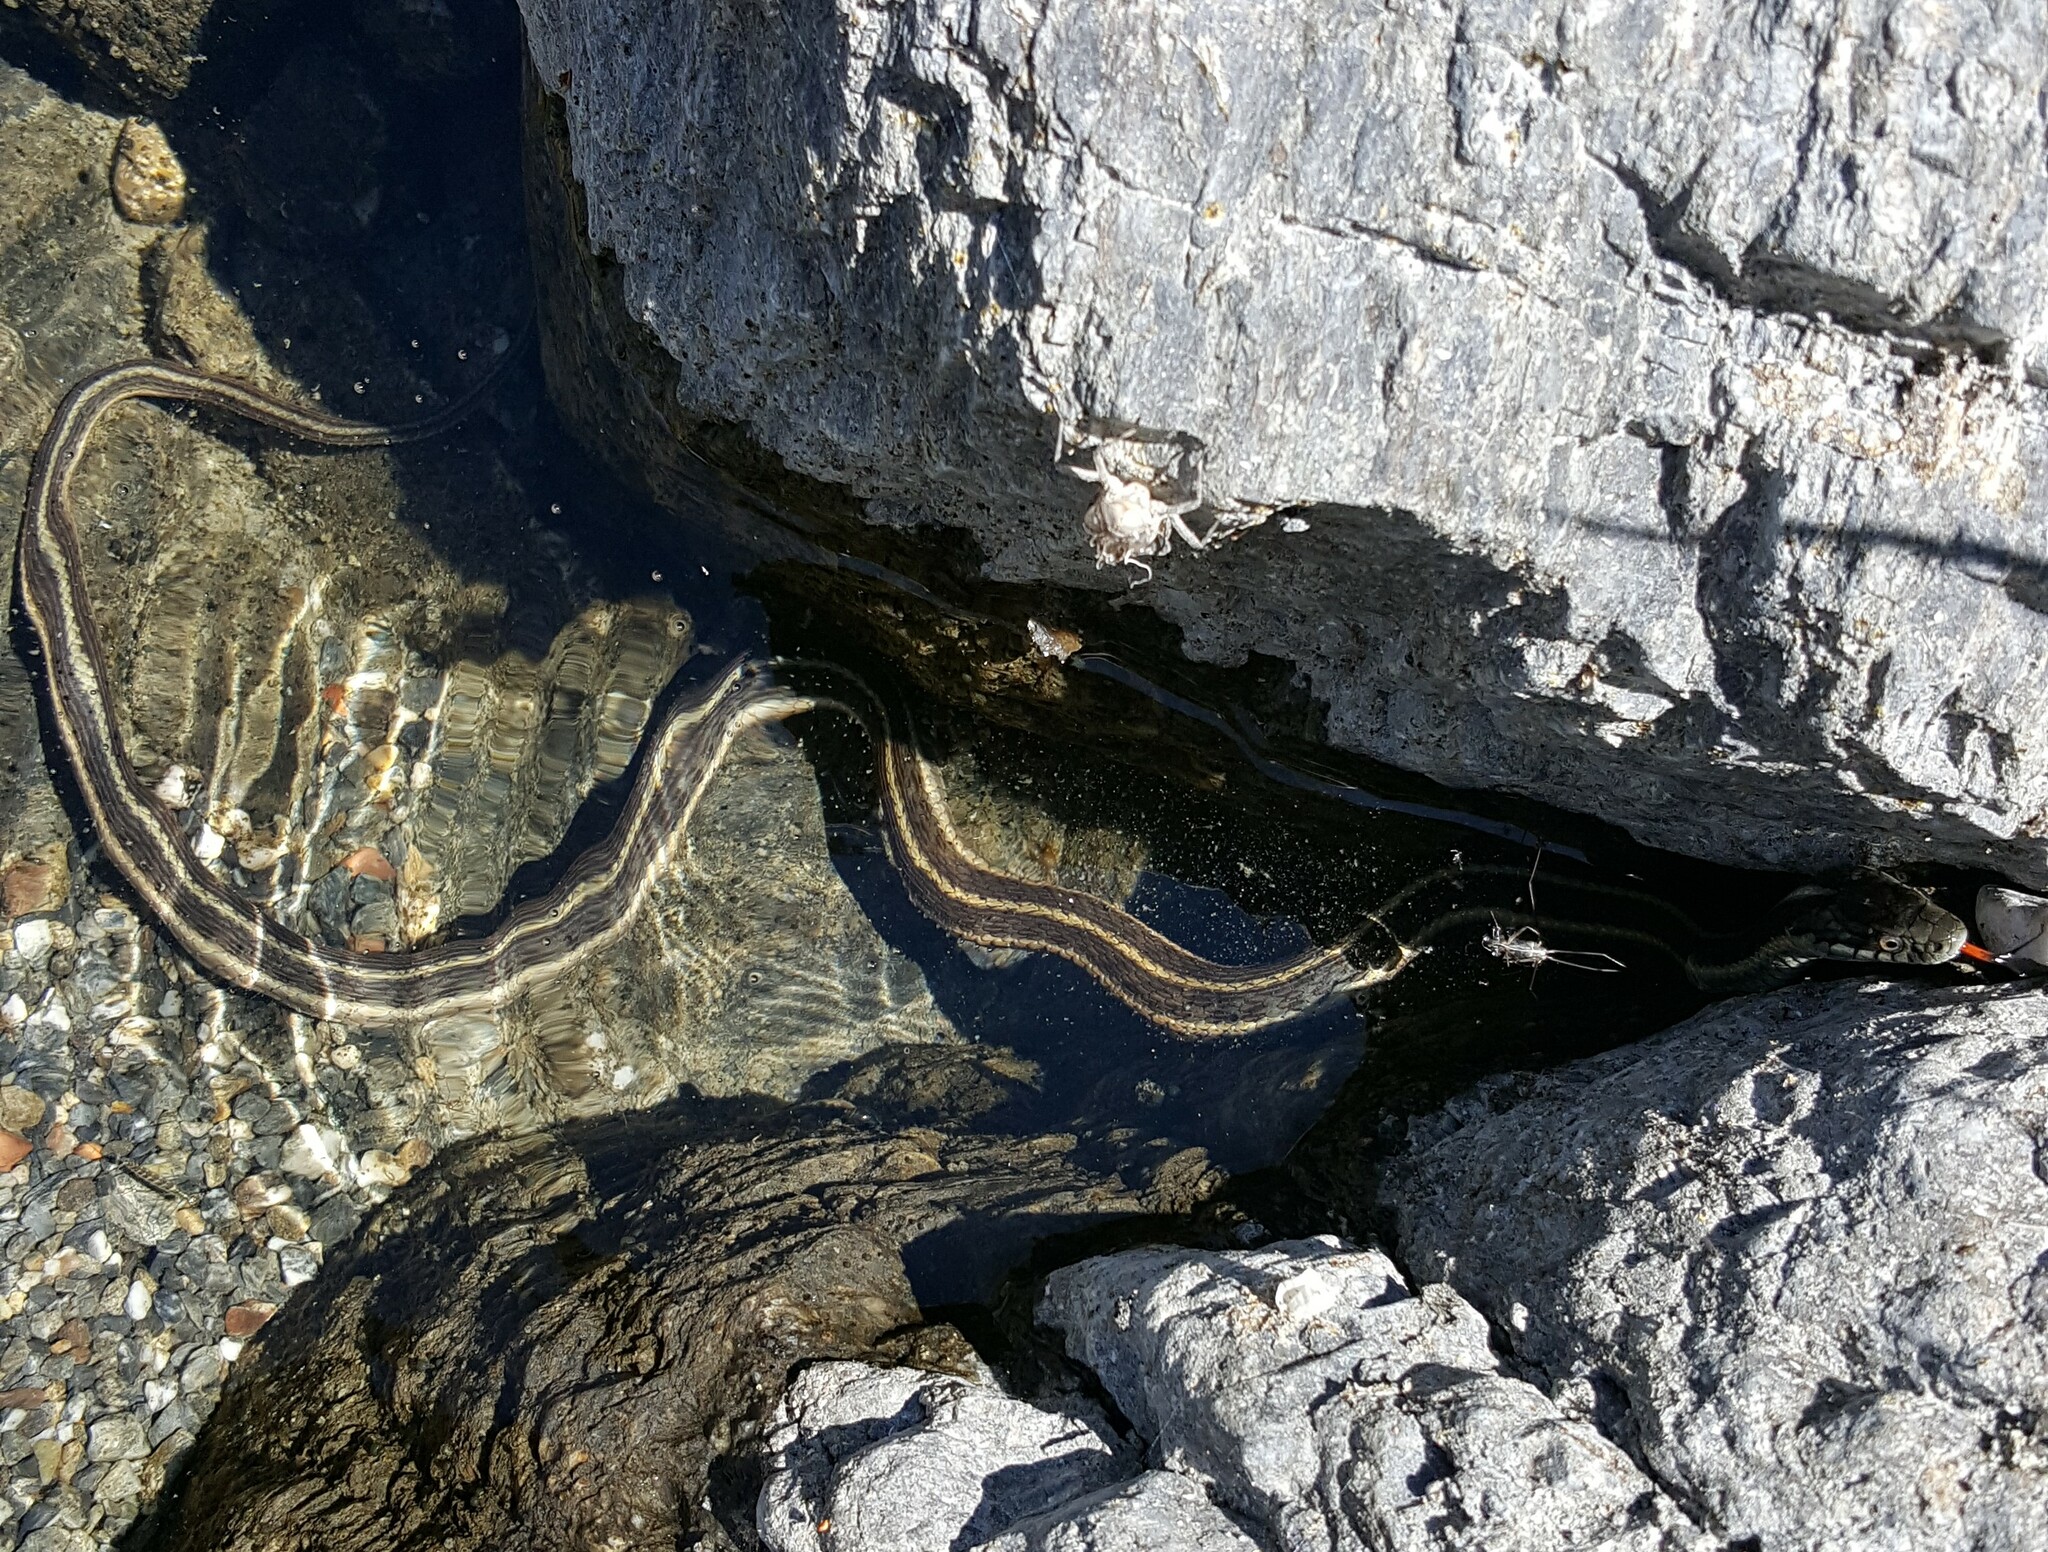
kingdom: Animalia
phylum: Chordata
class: Squamata
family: Colubridae
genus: Thamnophis
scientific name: Thamnophis atratus
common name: Pacific coast aquatic garter snake
